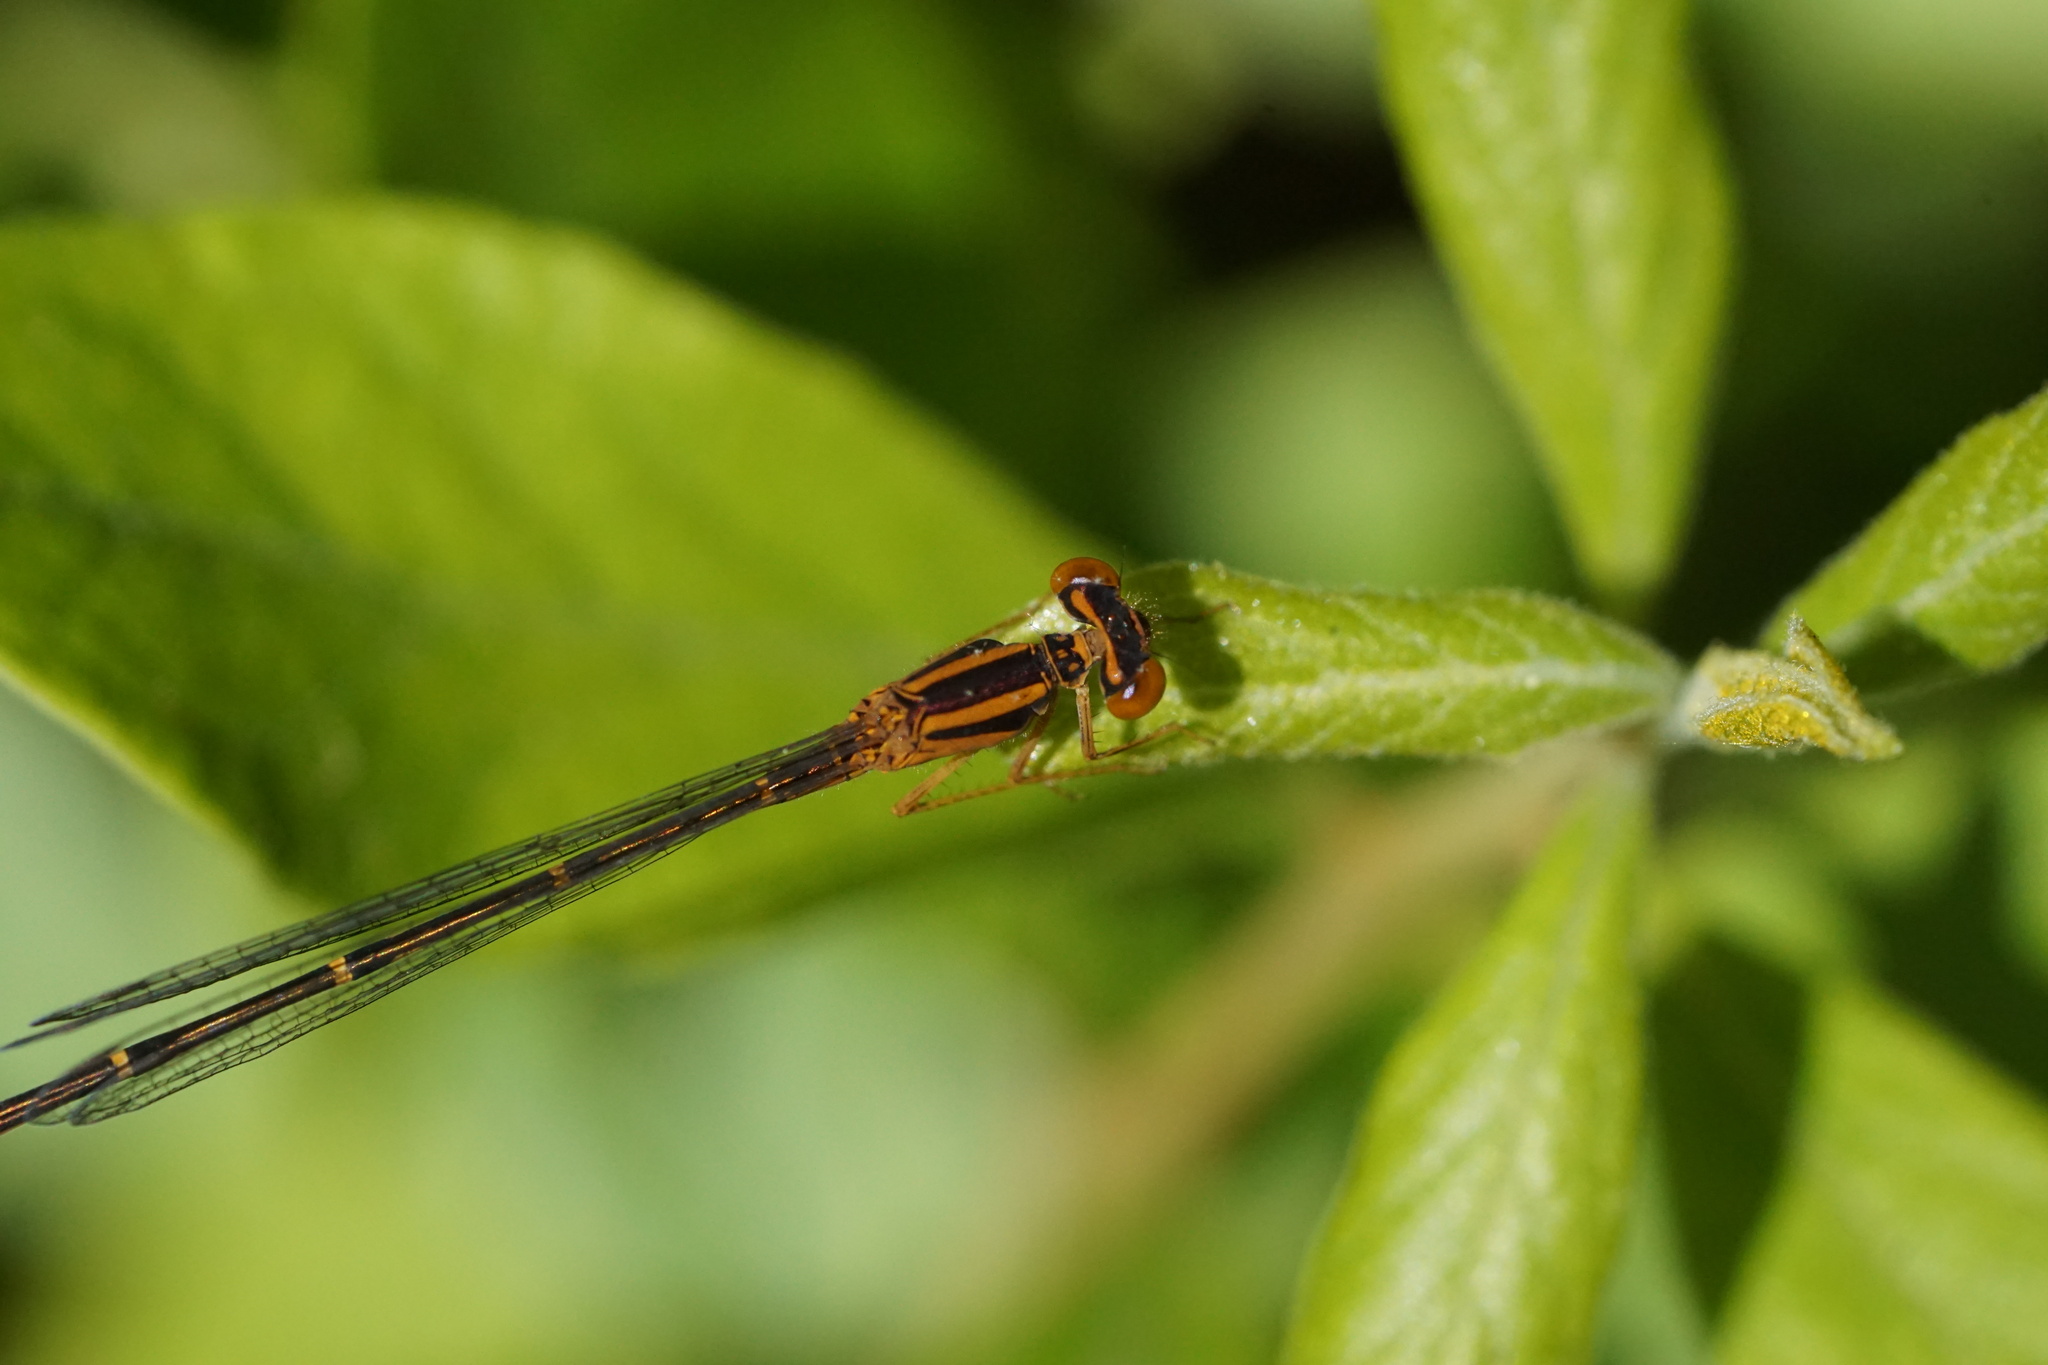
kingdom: Animalia
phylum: Arthropoda
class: Insecta
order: Odonata
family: Coenagrionidae
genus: Enallagma
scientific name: Enallagma signatum
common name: Orange bluet
